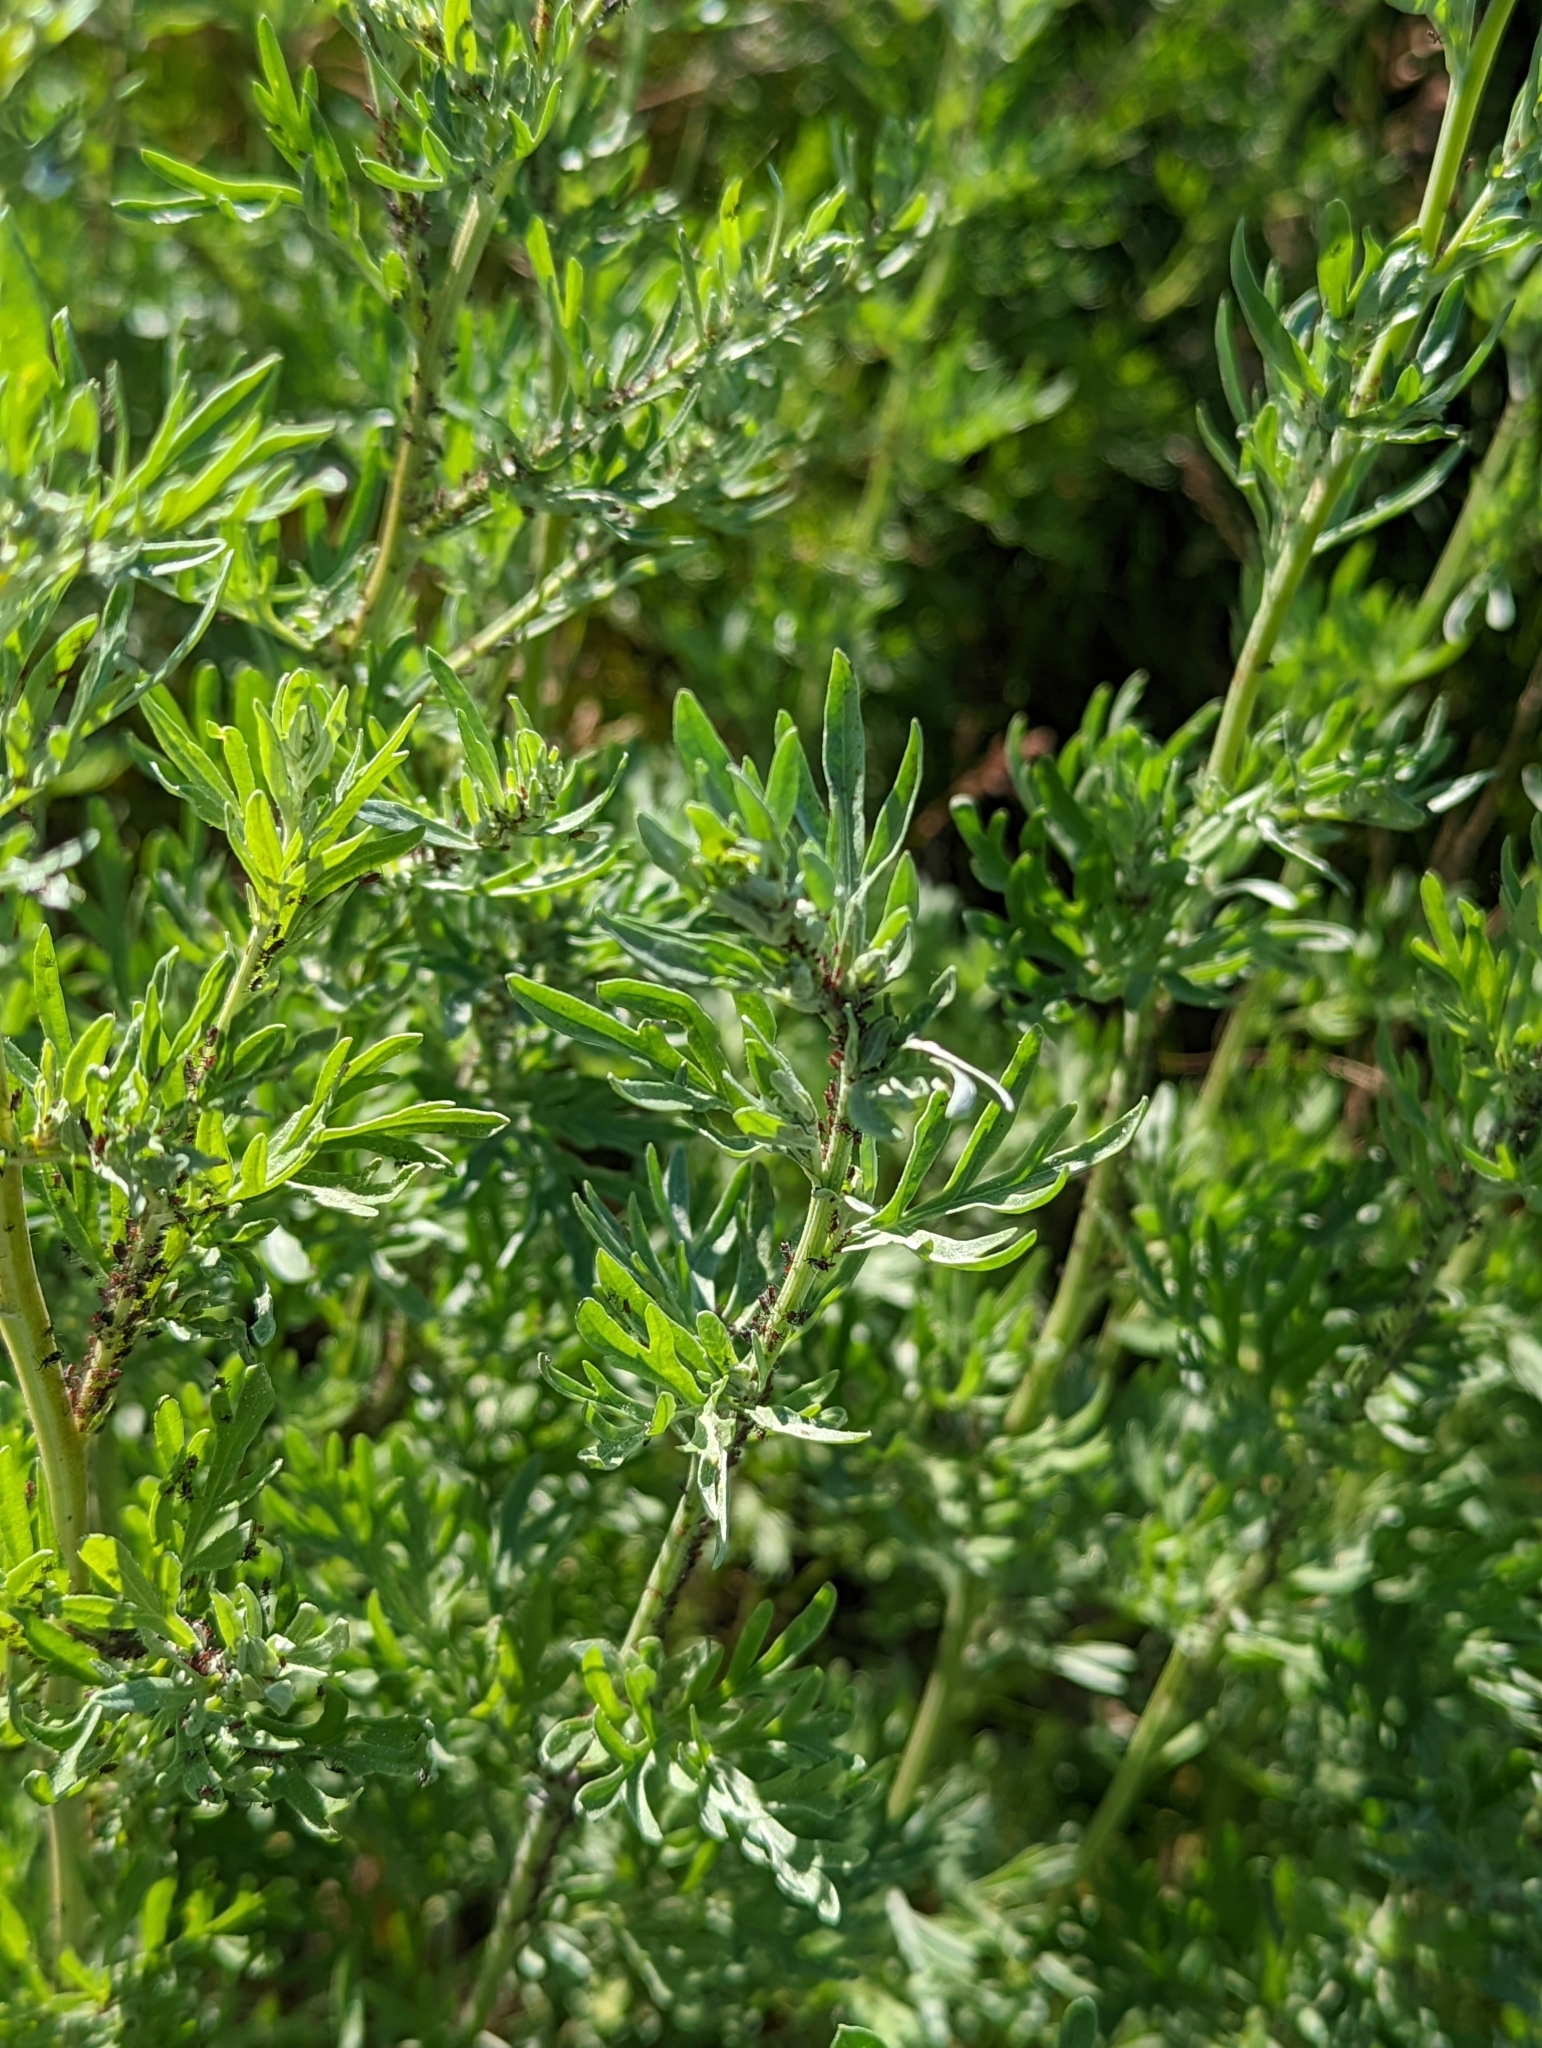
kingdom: Plantae
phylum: Tracheophyta
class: Magnoliopsida
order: Asterales
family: Asteraceae
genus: Artemisia
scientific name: Artemisia absinthium
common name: Wormwood
